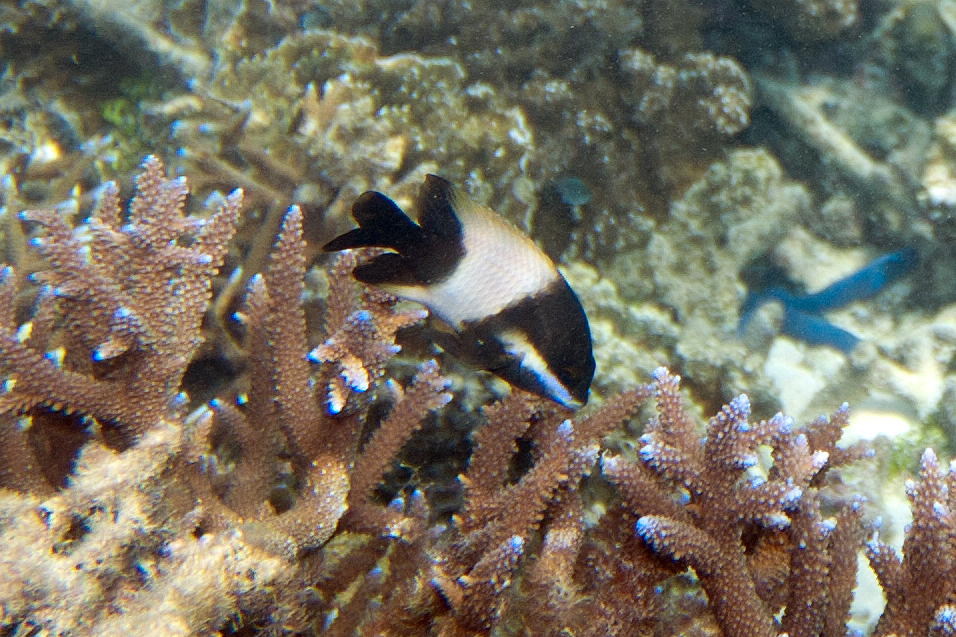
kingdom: Animalia
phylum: Chordata
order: Perciformes
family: Pomacentridae
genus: Stegastes
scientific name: Stegastes nigricans
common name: Dusky gregory
